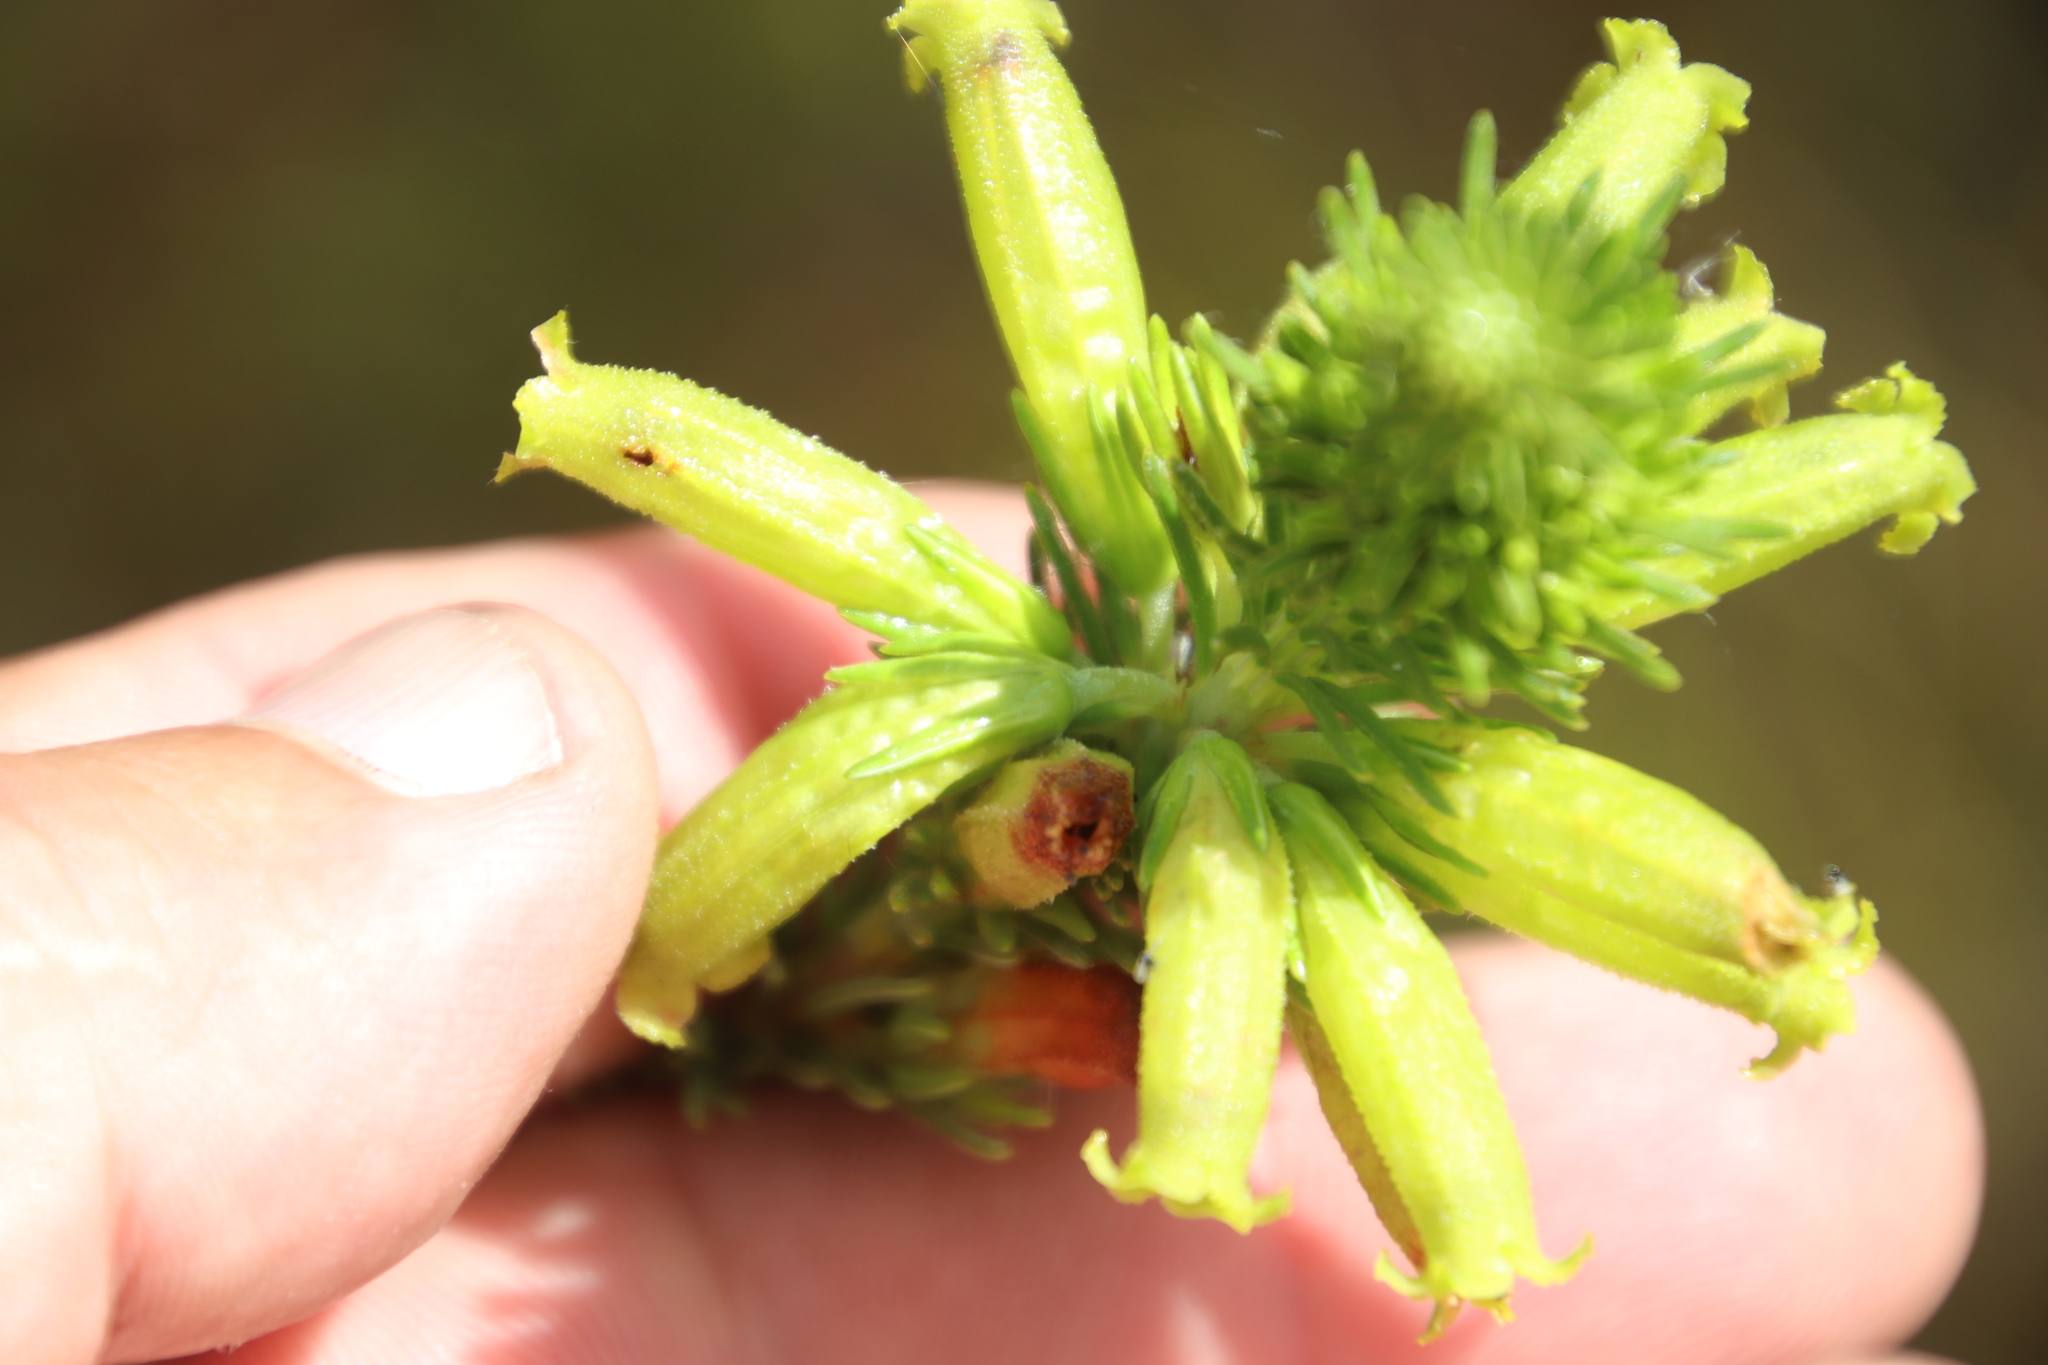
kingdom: Plantae
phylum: Tracheophyta
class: Magnoliopsida
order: Ericales
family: Ericaceae
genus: Erica
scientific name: Erica viscaria
